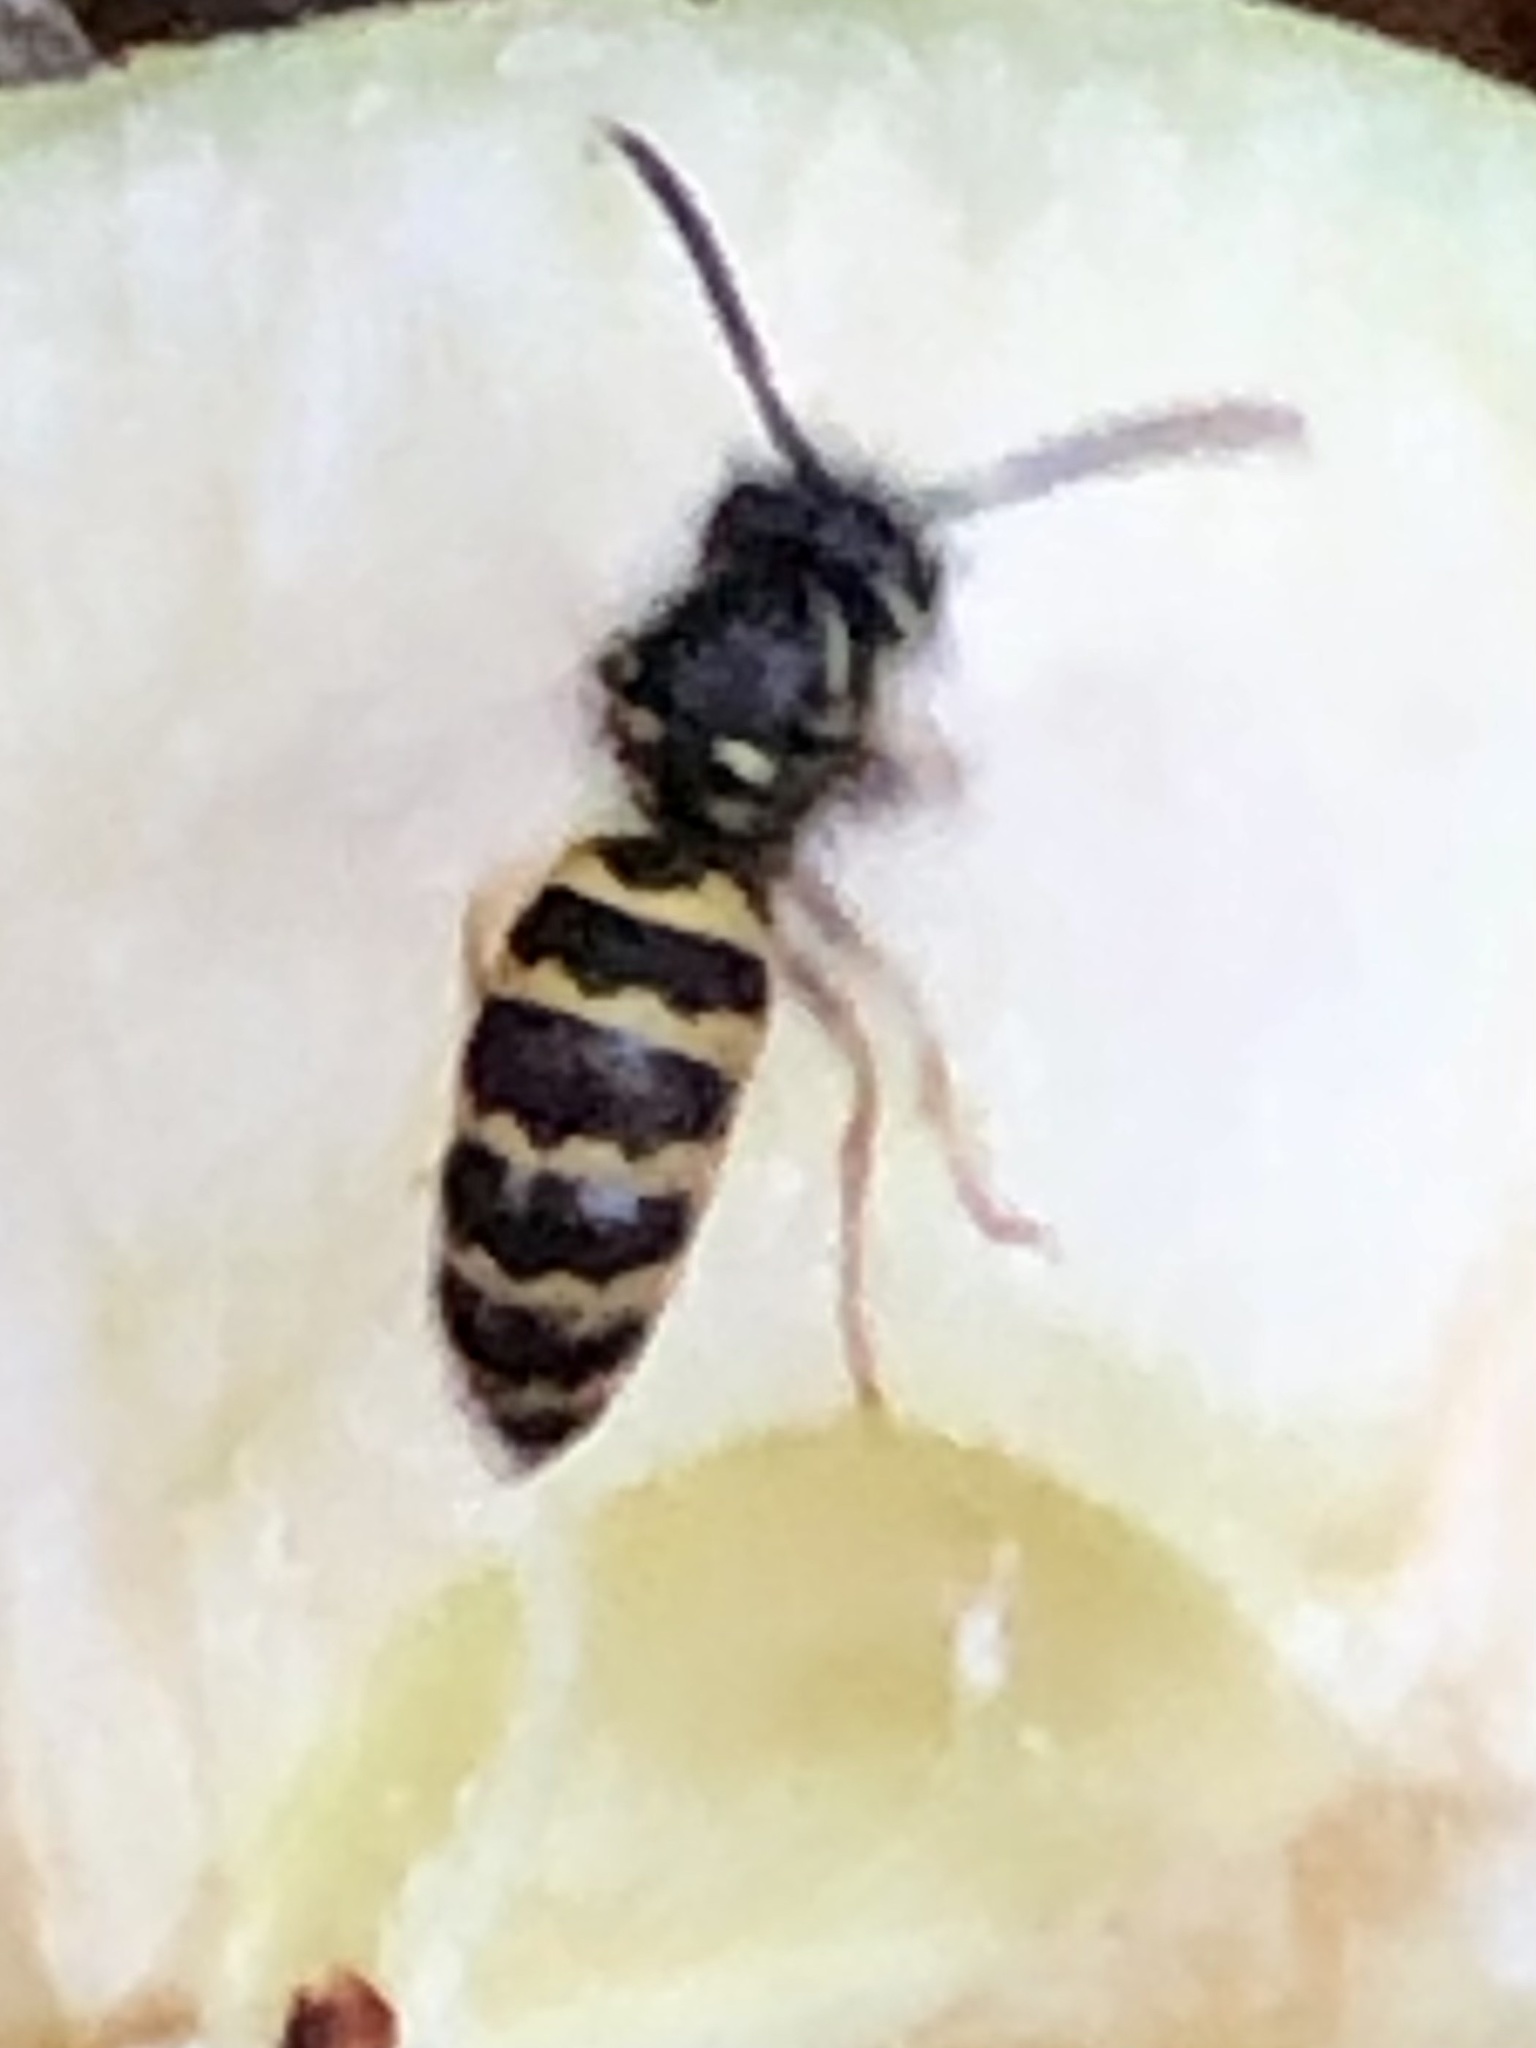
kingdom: Animalia
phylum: Arthropoda
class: Insecta
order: Hymenoptera
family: Vespidae
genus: Vespula
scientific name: Vespula alascensis
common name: Alaska yellowjacket
